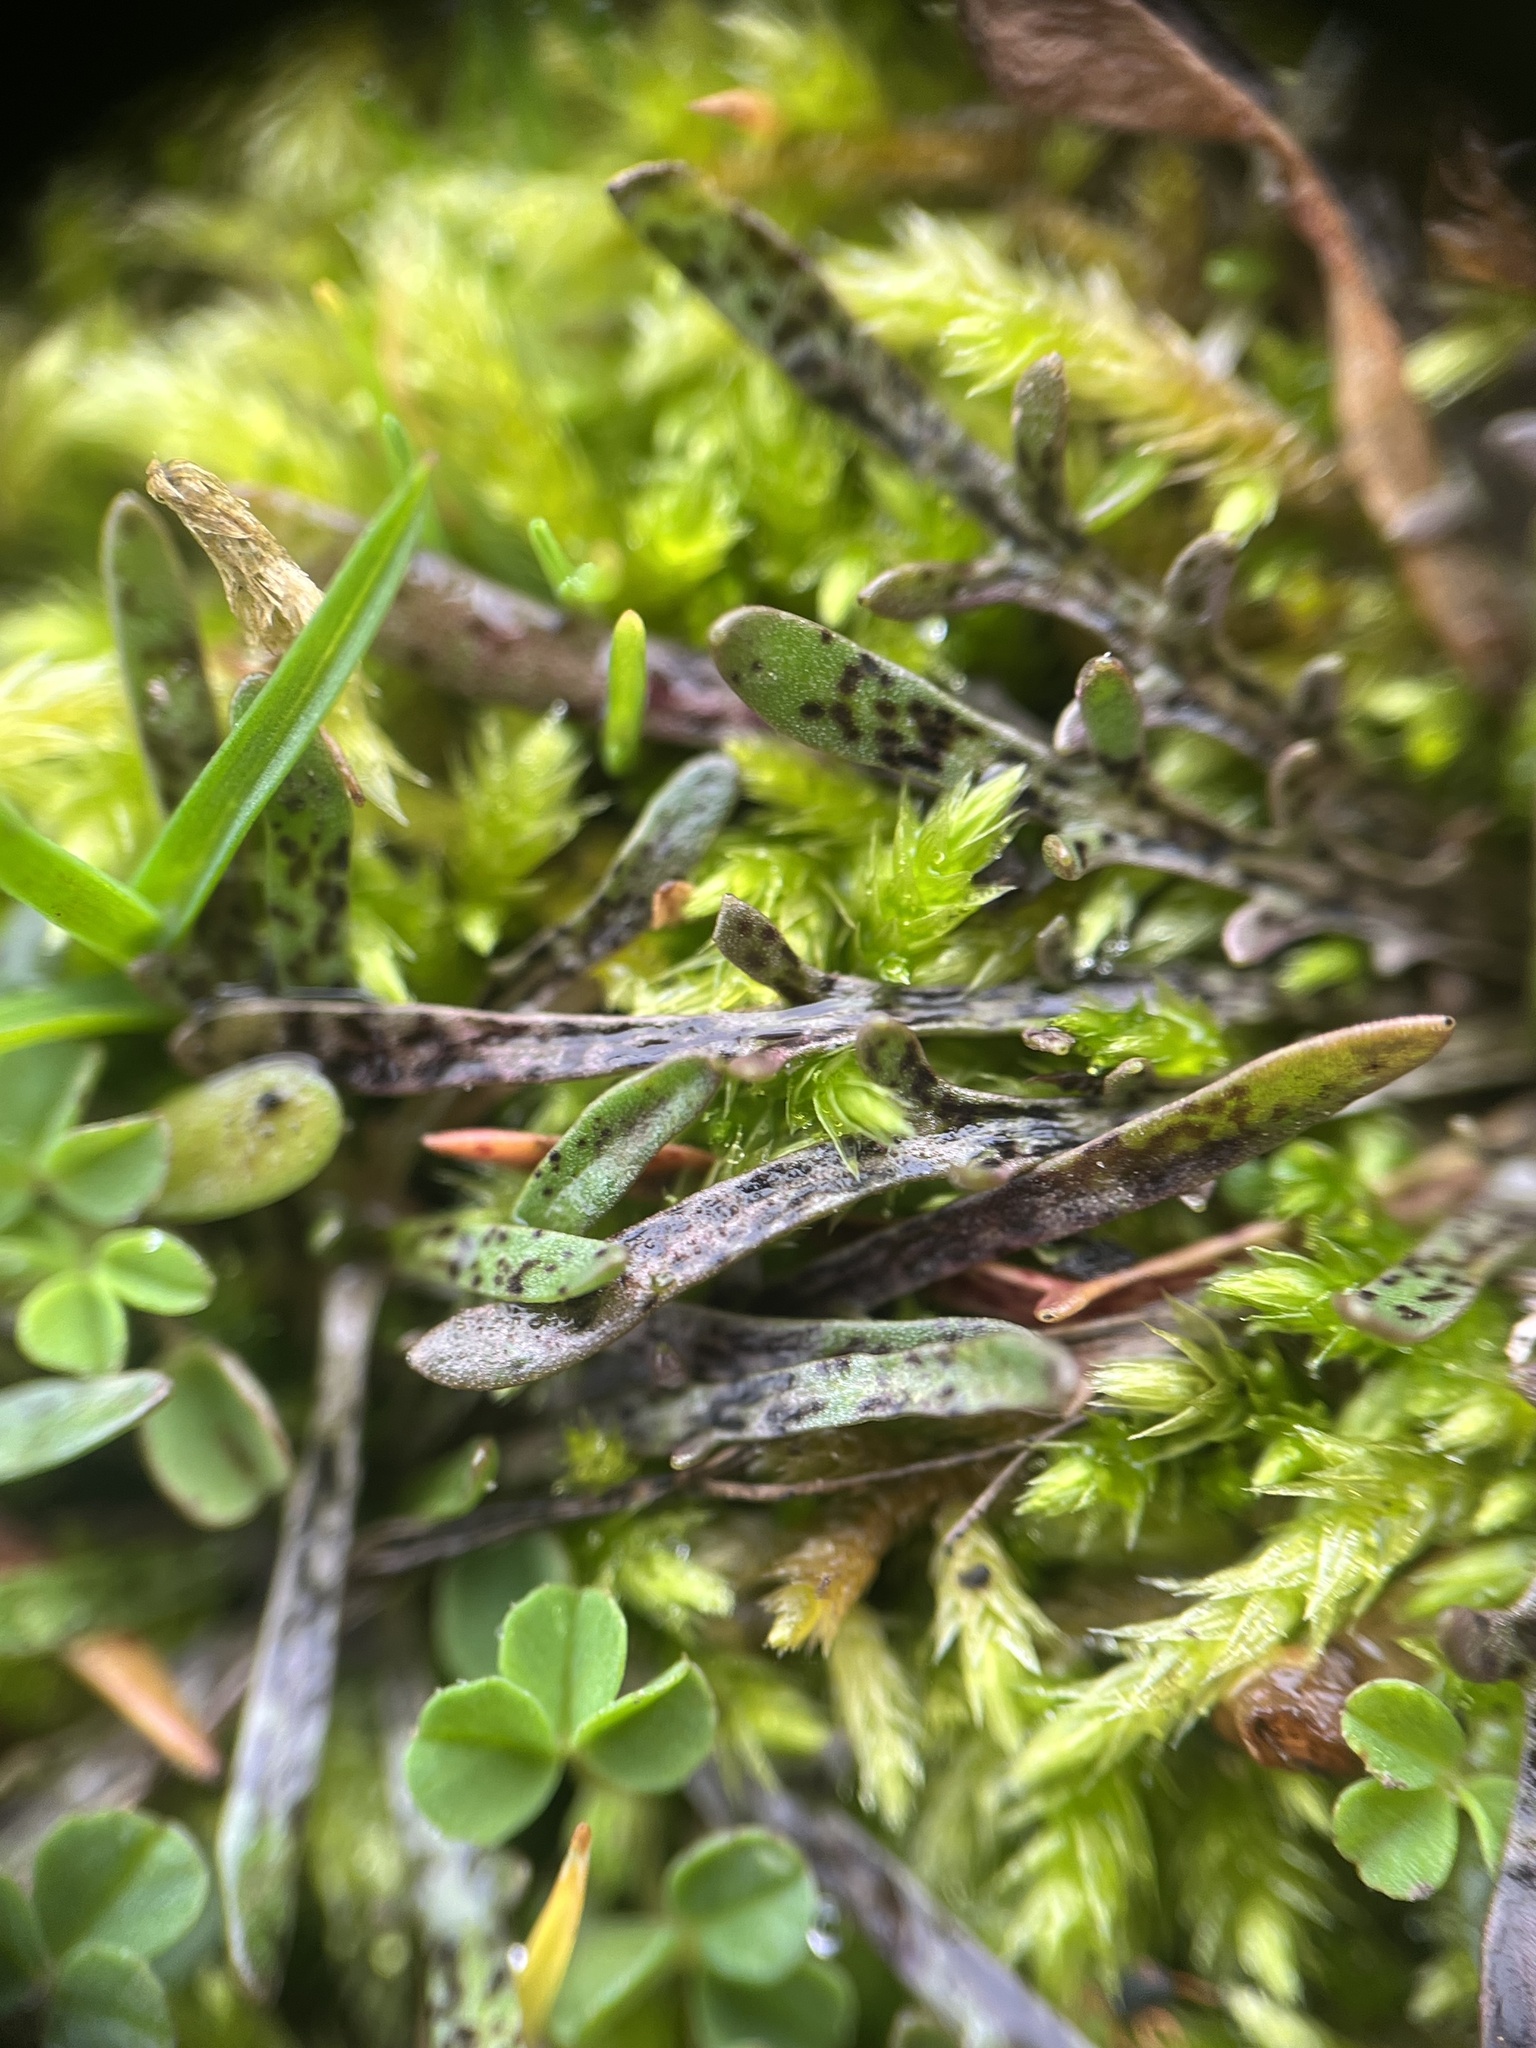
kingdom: Plantae
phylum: Tracheophyta
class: Magnoliopsida
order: Asterales
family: Asteraceae
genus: Microseris
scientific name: Microseris bigelovii
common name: Coast microseris
